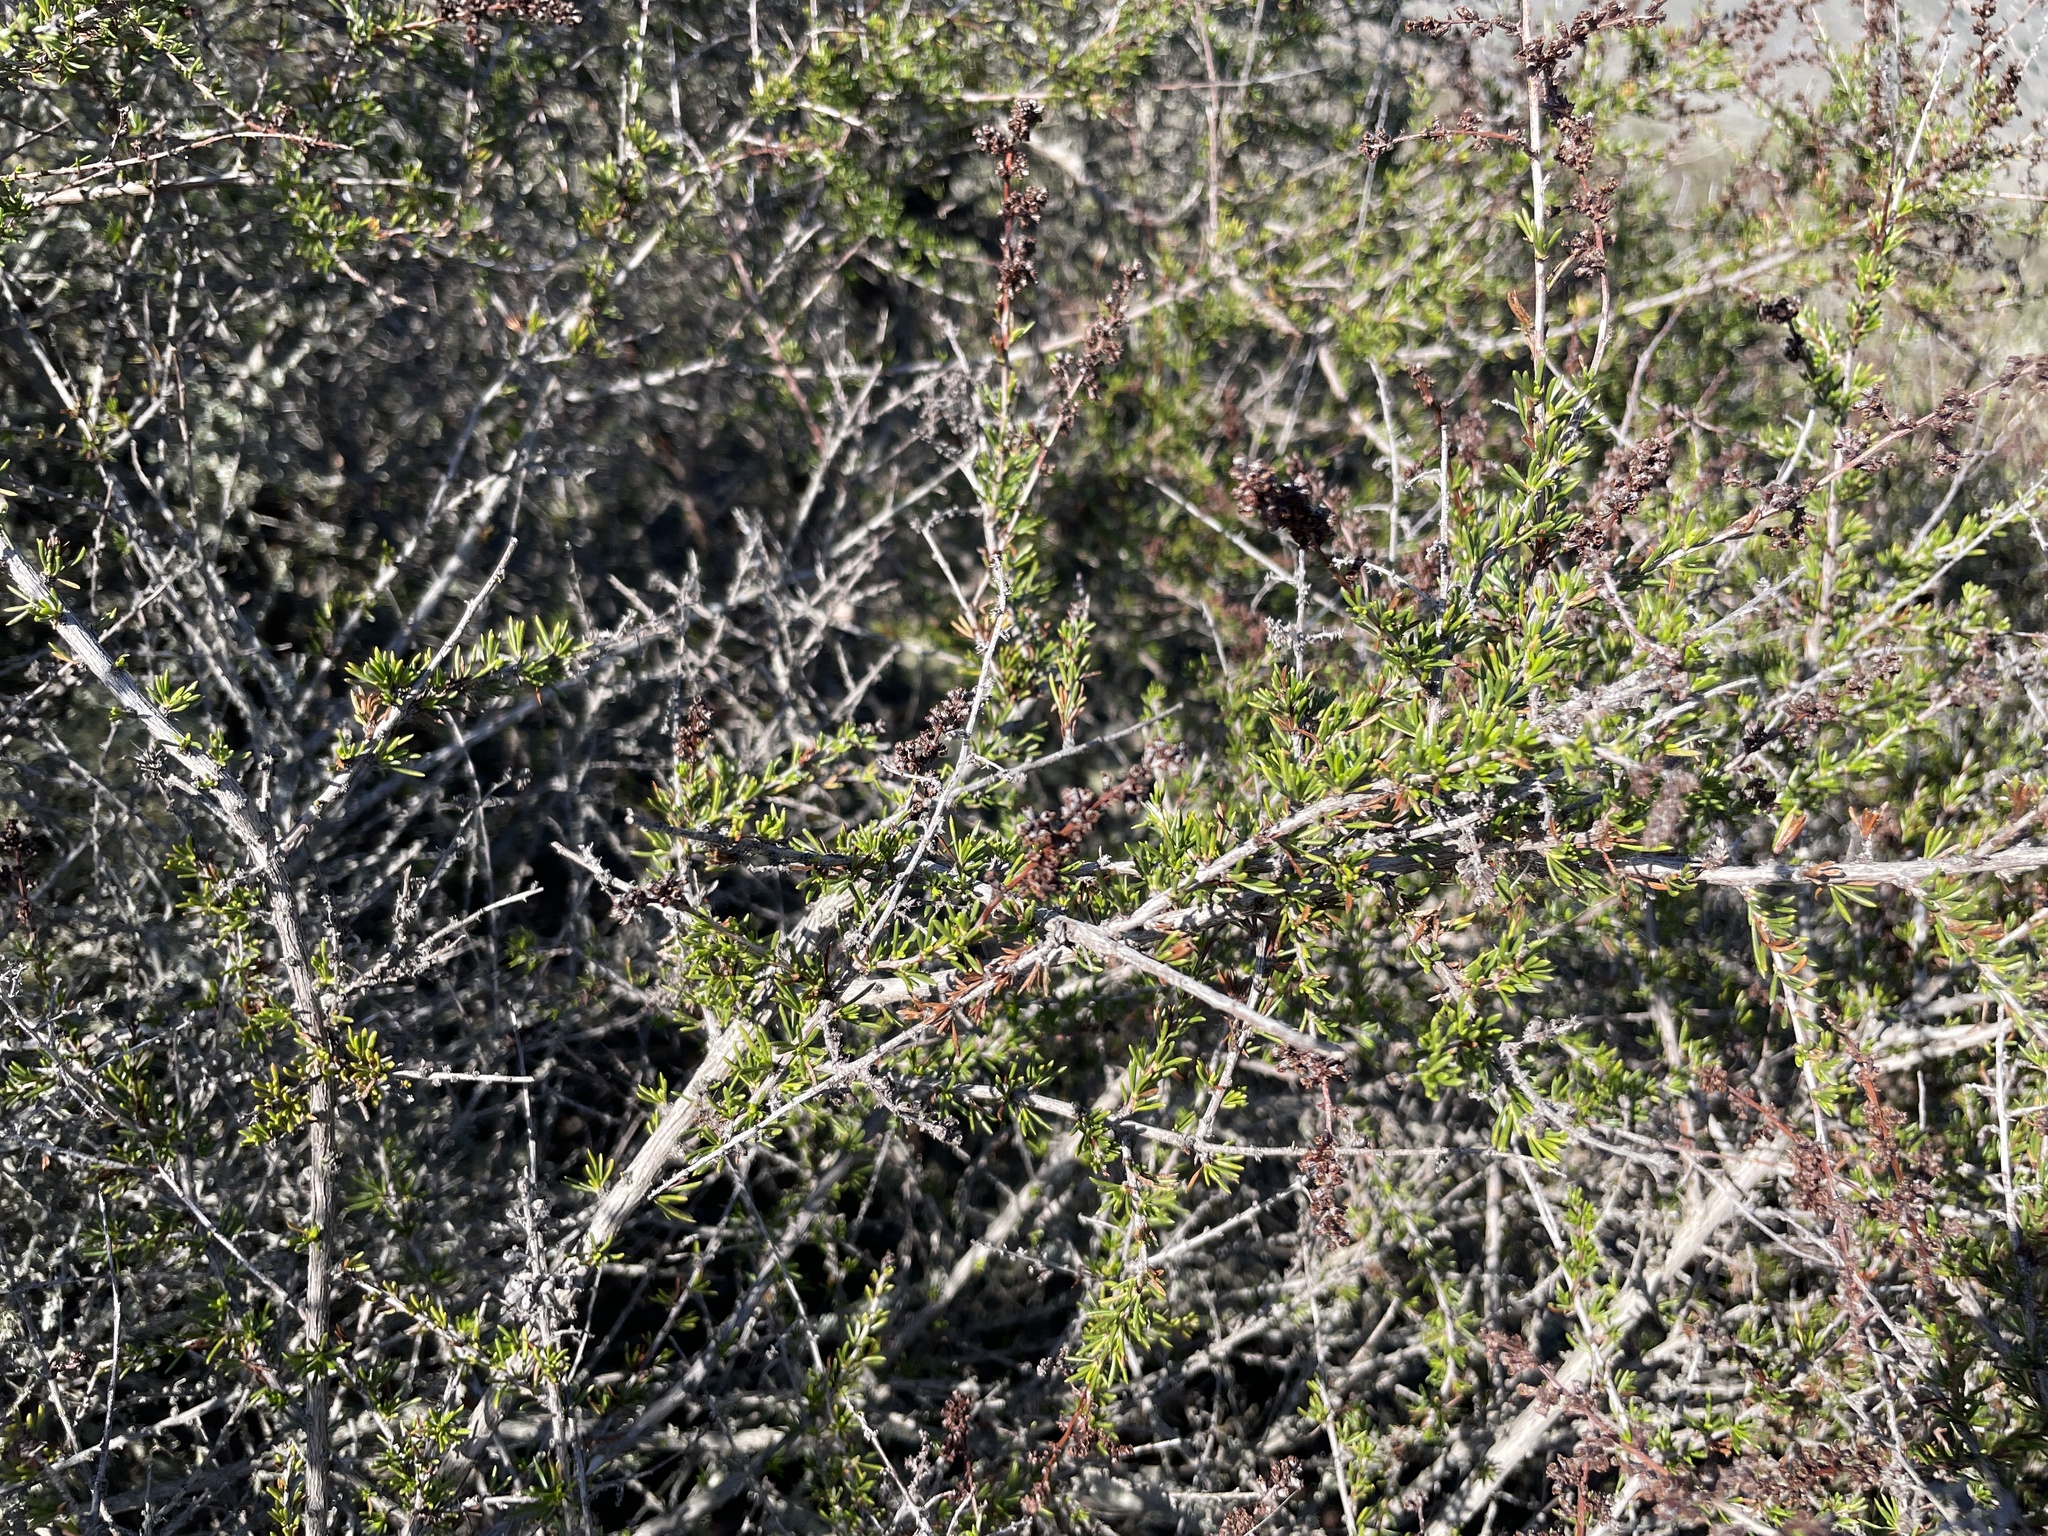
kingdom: Plantae
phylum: Tracheophyta
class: Magnoliopsida
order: Rosales
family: Rosaceae
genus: Adenostoma
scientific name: Adenostoma fasciculatum
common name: Chamise
